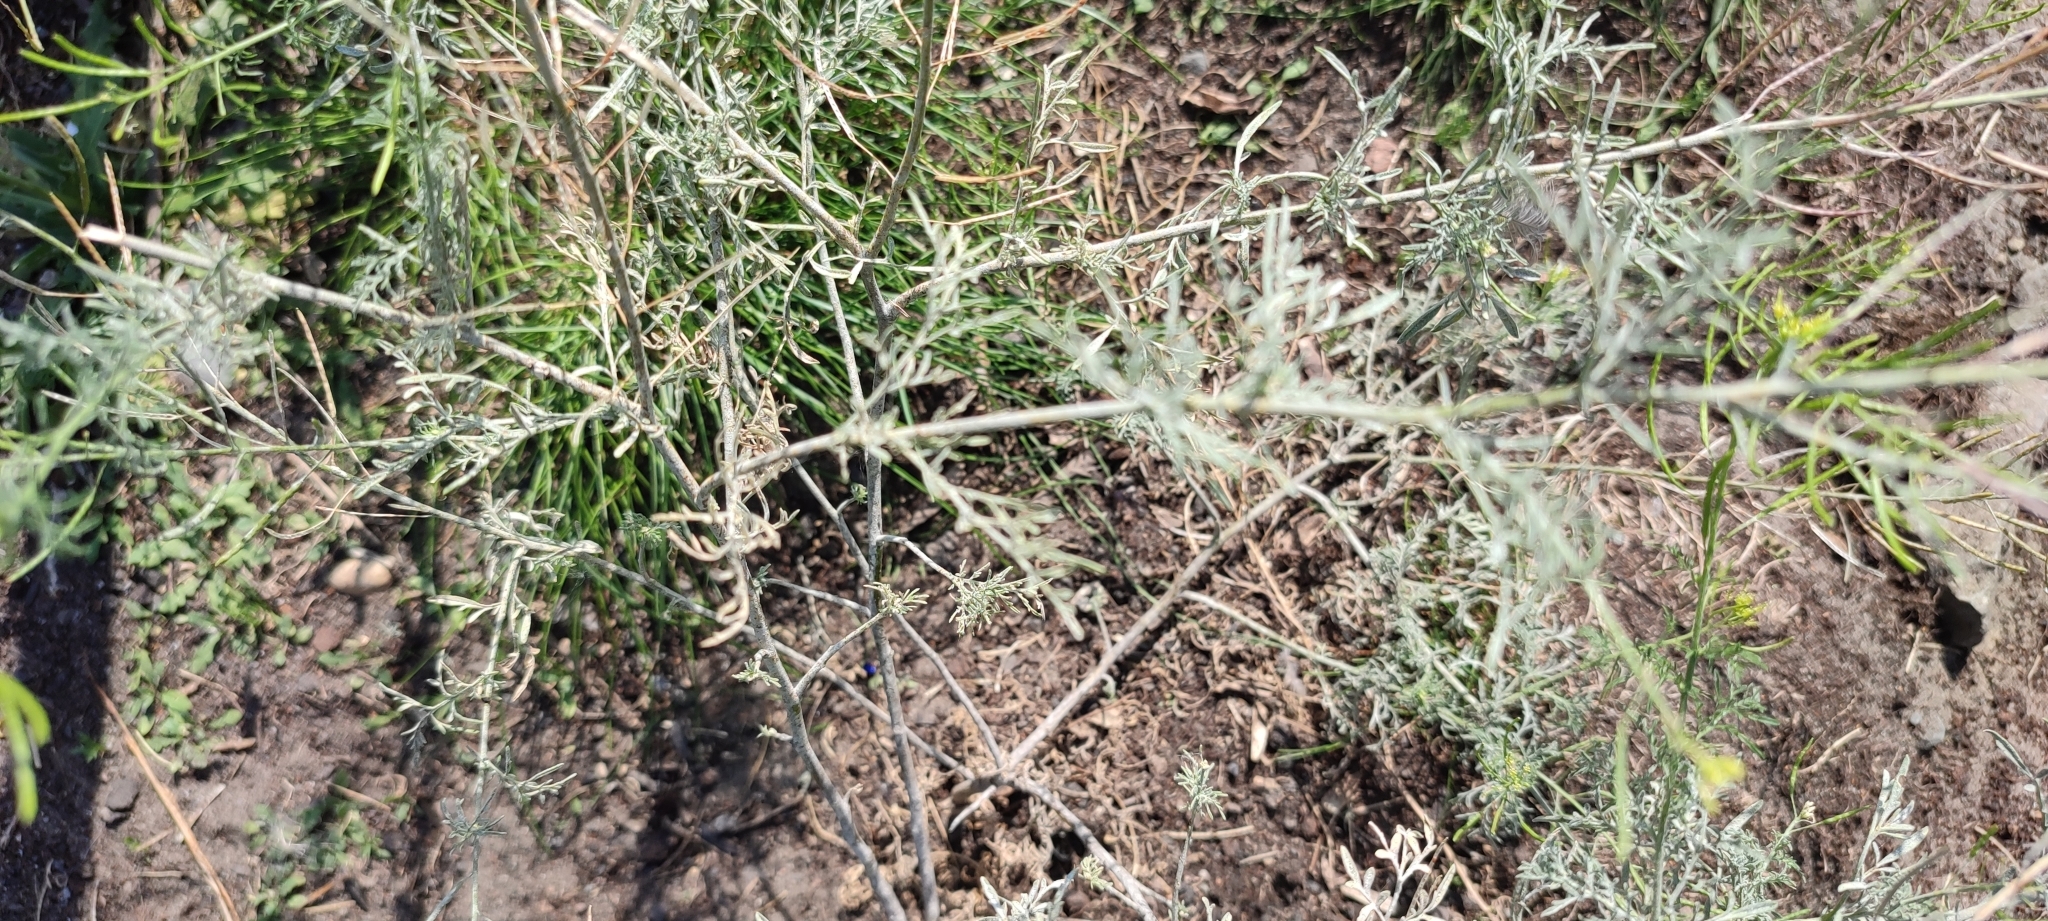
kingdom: Plantae
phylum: Tracheophyta
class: Magnoliopsida
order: Brassicales
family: Brassicaceae
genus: Descurainia
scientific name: Descurainia sophia
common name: Flixweed
